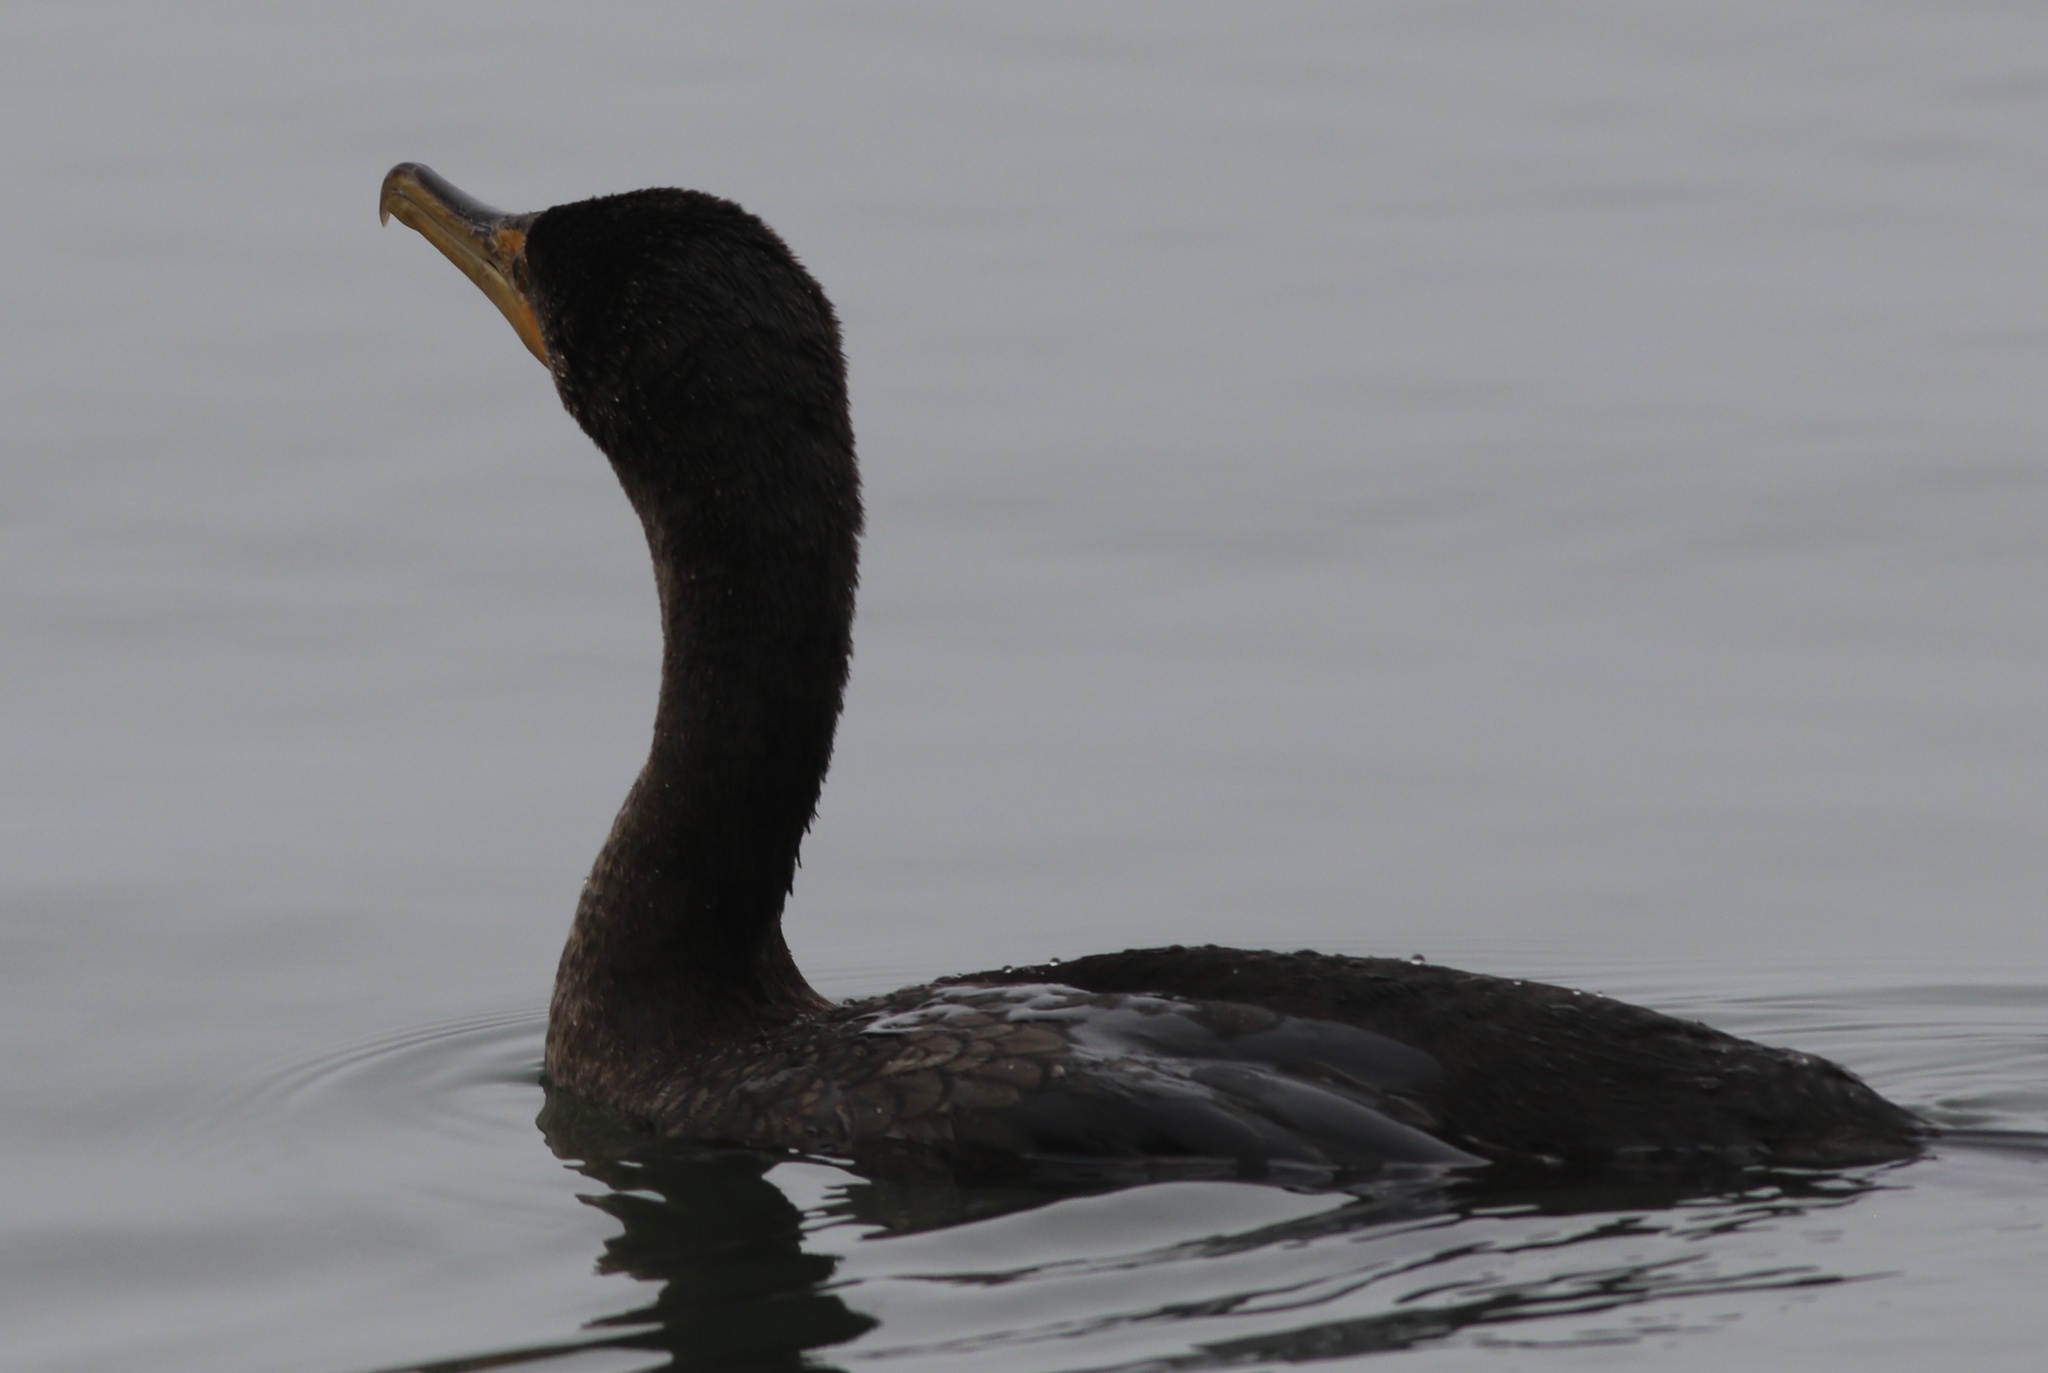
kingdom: Animalia
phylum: Chordata
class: Aves
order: Suliformes
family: Phalacrocoracidae
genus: Phalacrocorax
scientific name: Phalacrocorax auritus
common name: Double-crested cormorant
